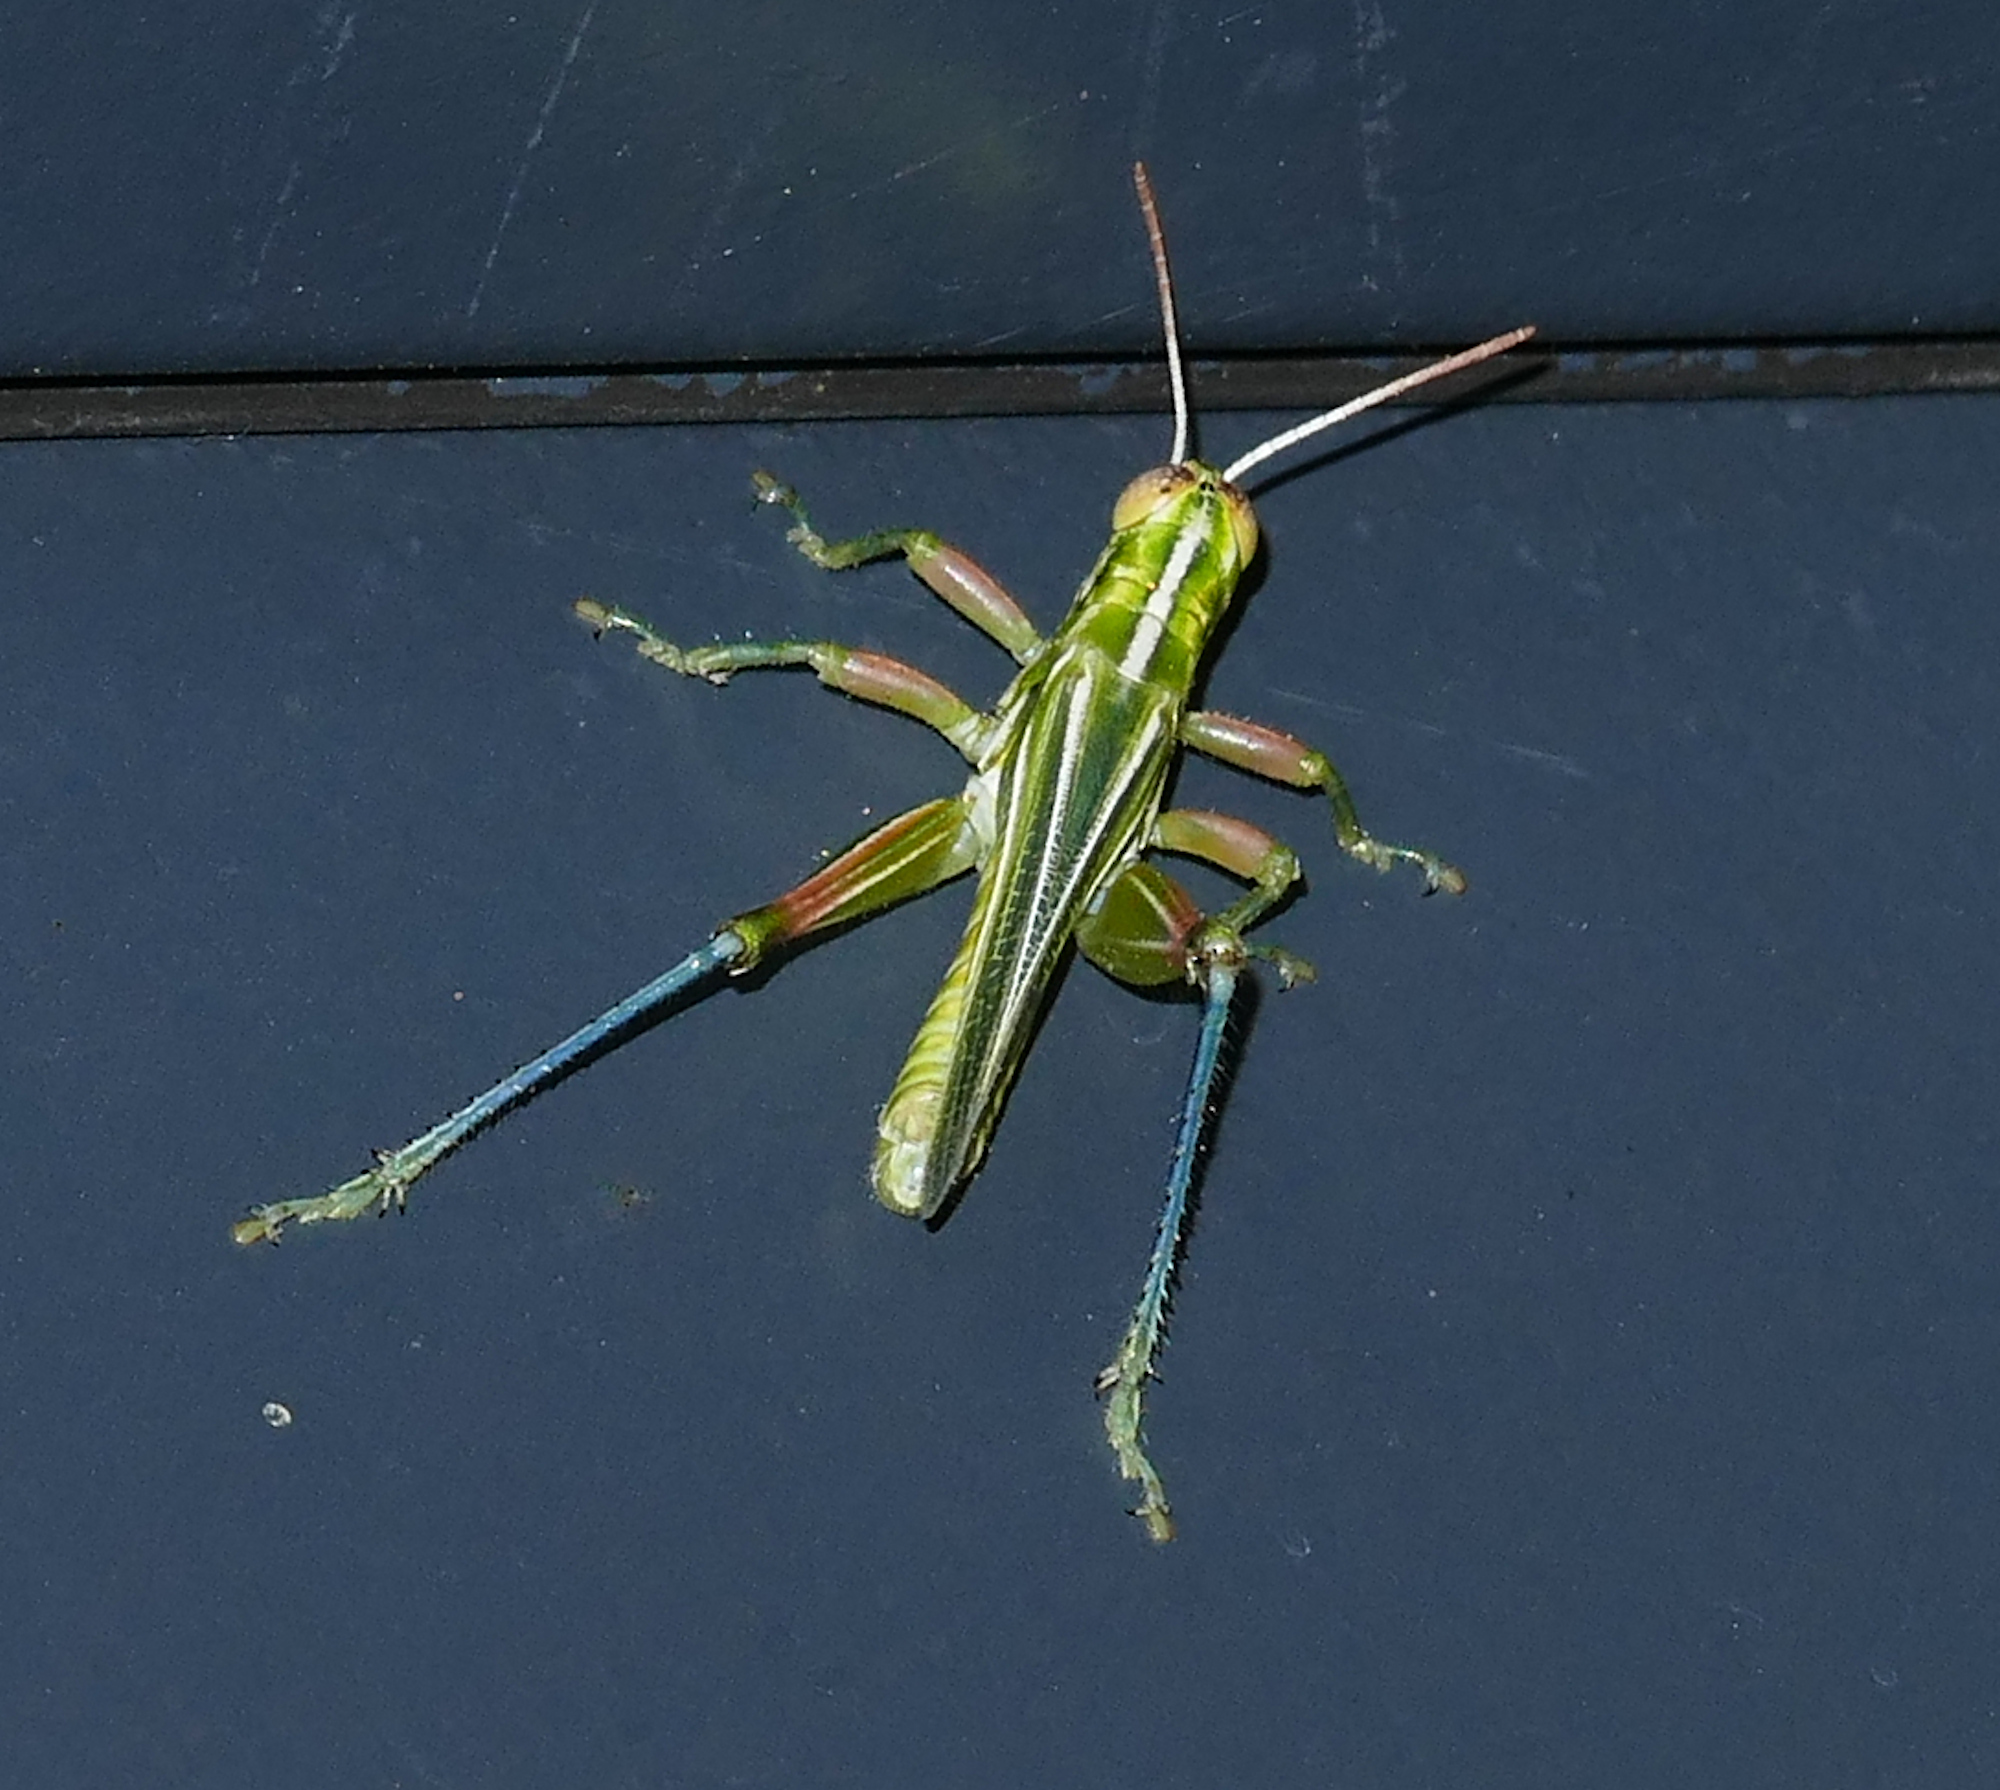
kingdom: Animalia
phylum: Arthropoda
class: Insecta
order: Orthoptera
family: Acrididae
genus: Hesperotettix
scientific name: Hesperotettix viridis
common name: Meadow purple-striped grasshopper
